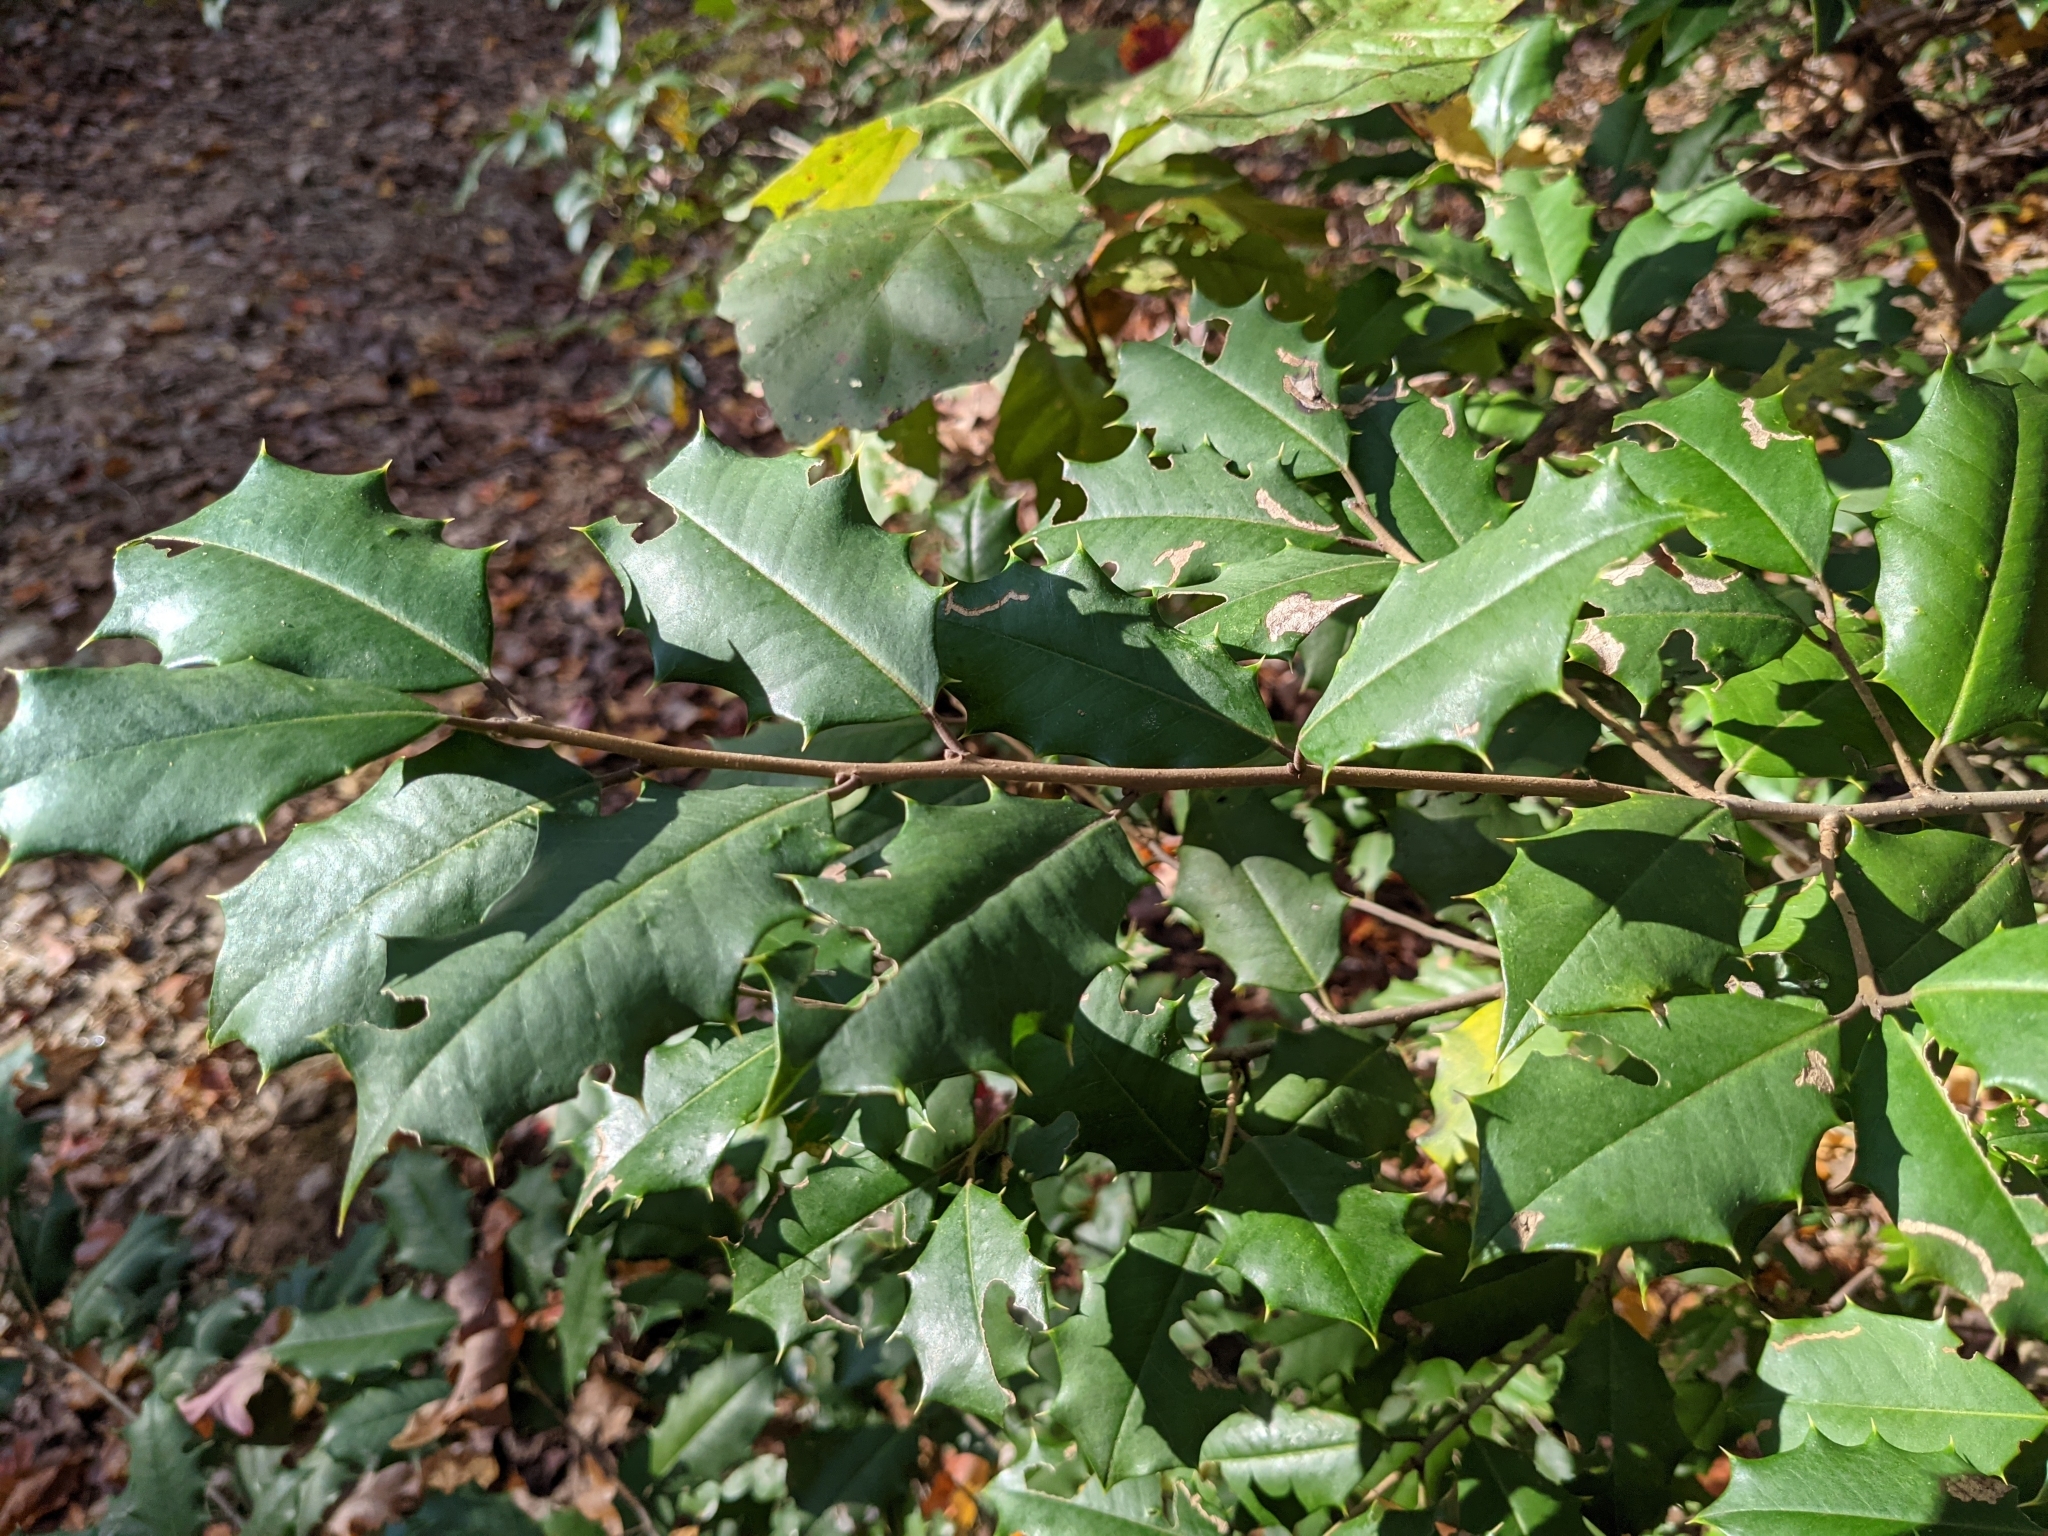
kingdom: Plantae
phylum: Tracheophyta
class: Magnoliopsida
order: Aquifoliales
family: Aquifoliaceae
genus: Ilex
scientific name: Ilex opaca
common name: American holly
